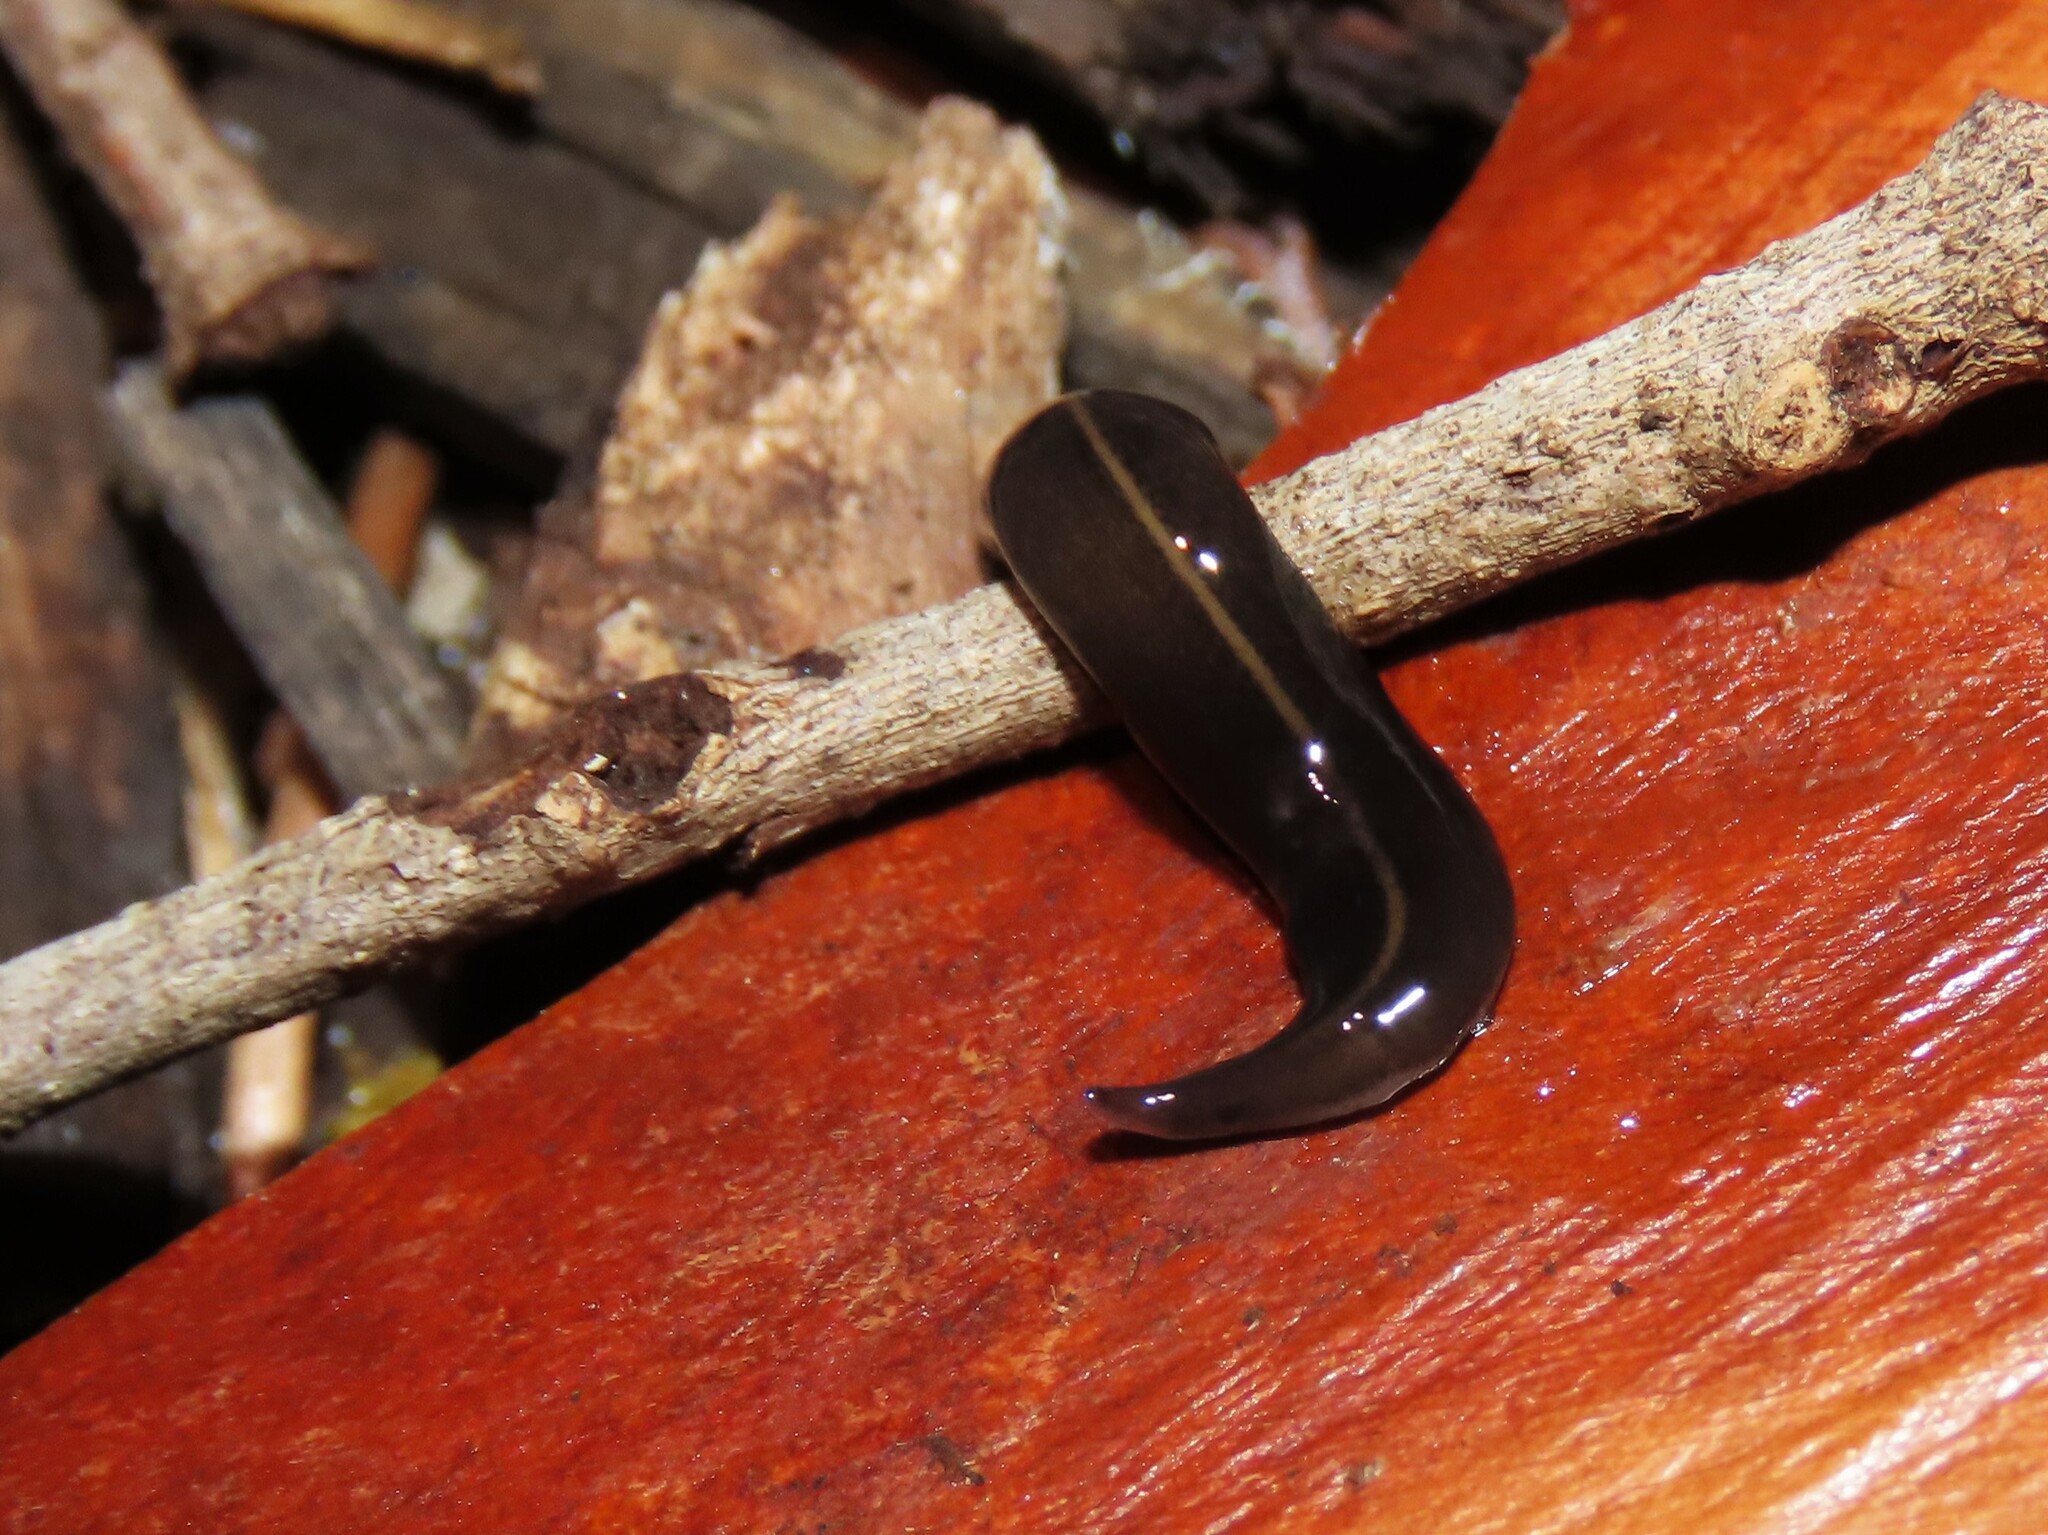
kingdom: Animalia
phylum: Platyhelminthes
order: Tricladida
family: Geoplanidae
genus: Platydemus
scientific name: Platydemus manokwari
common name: New guinea flatworm
